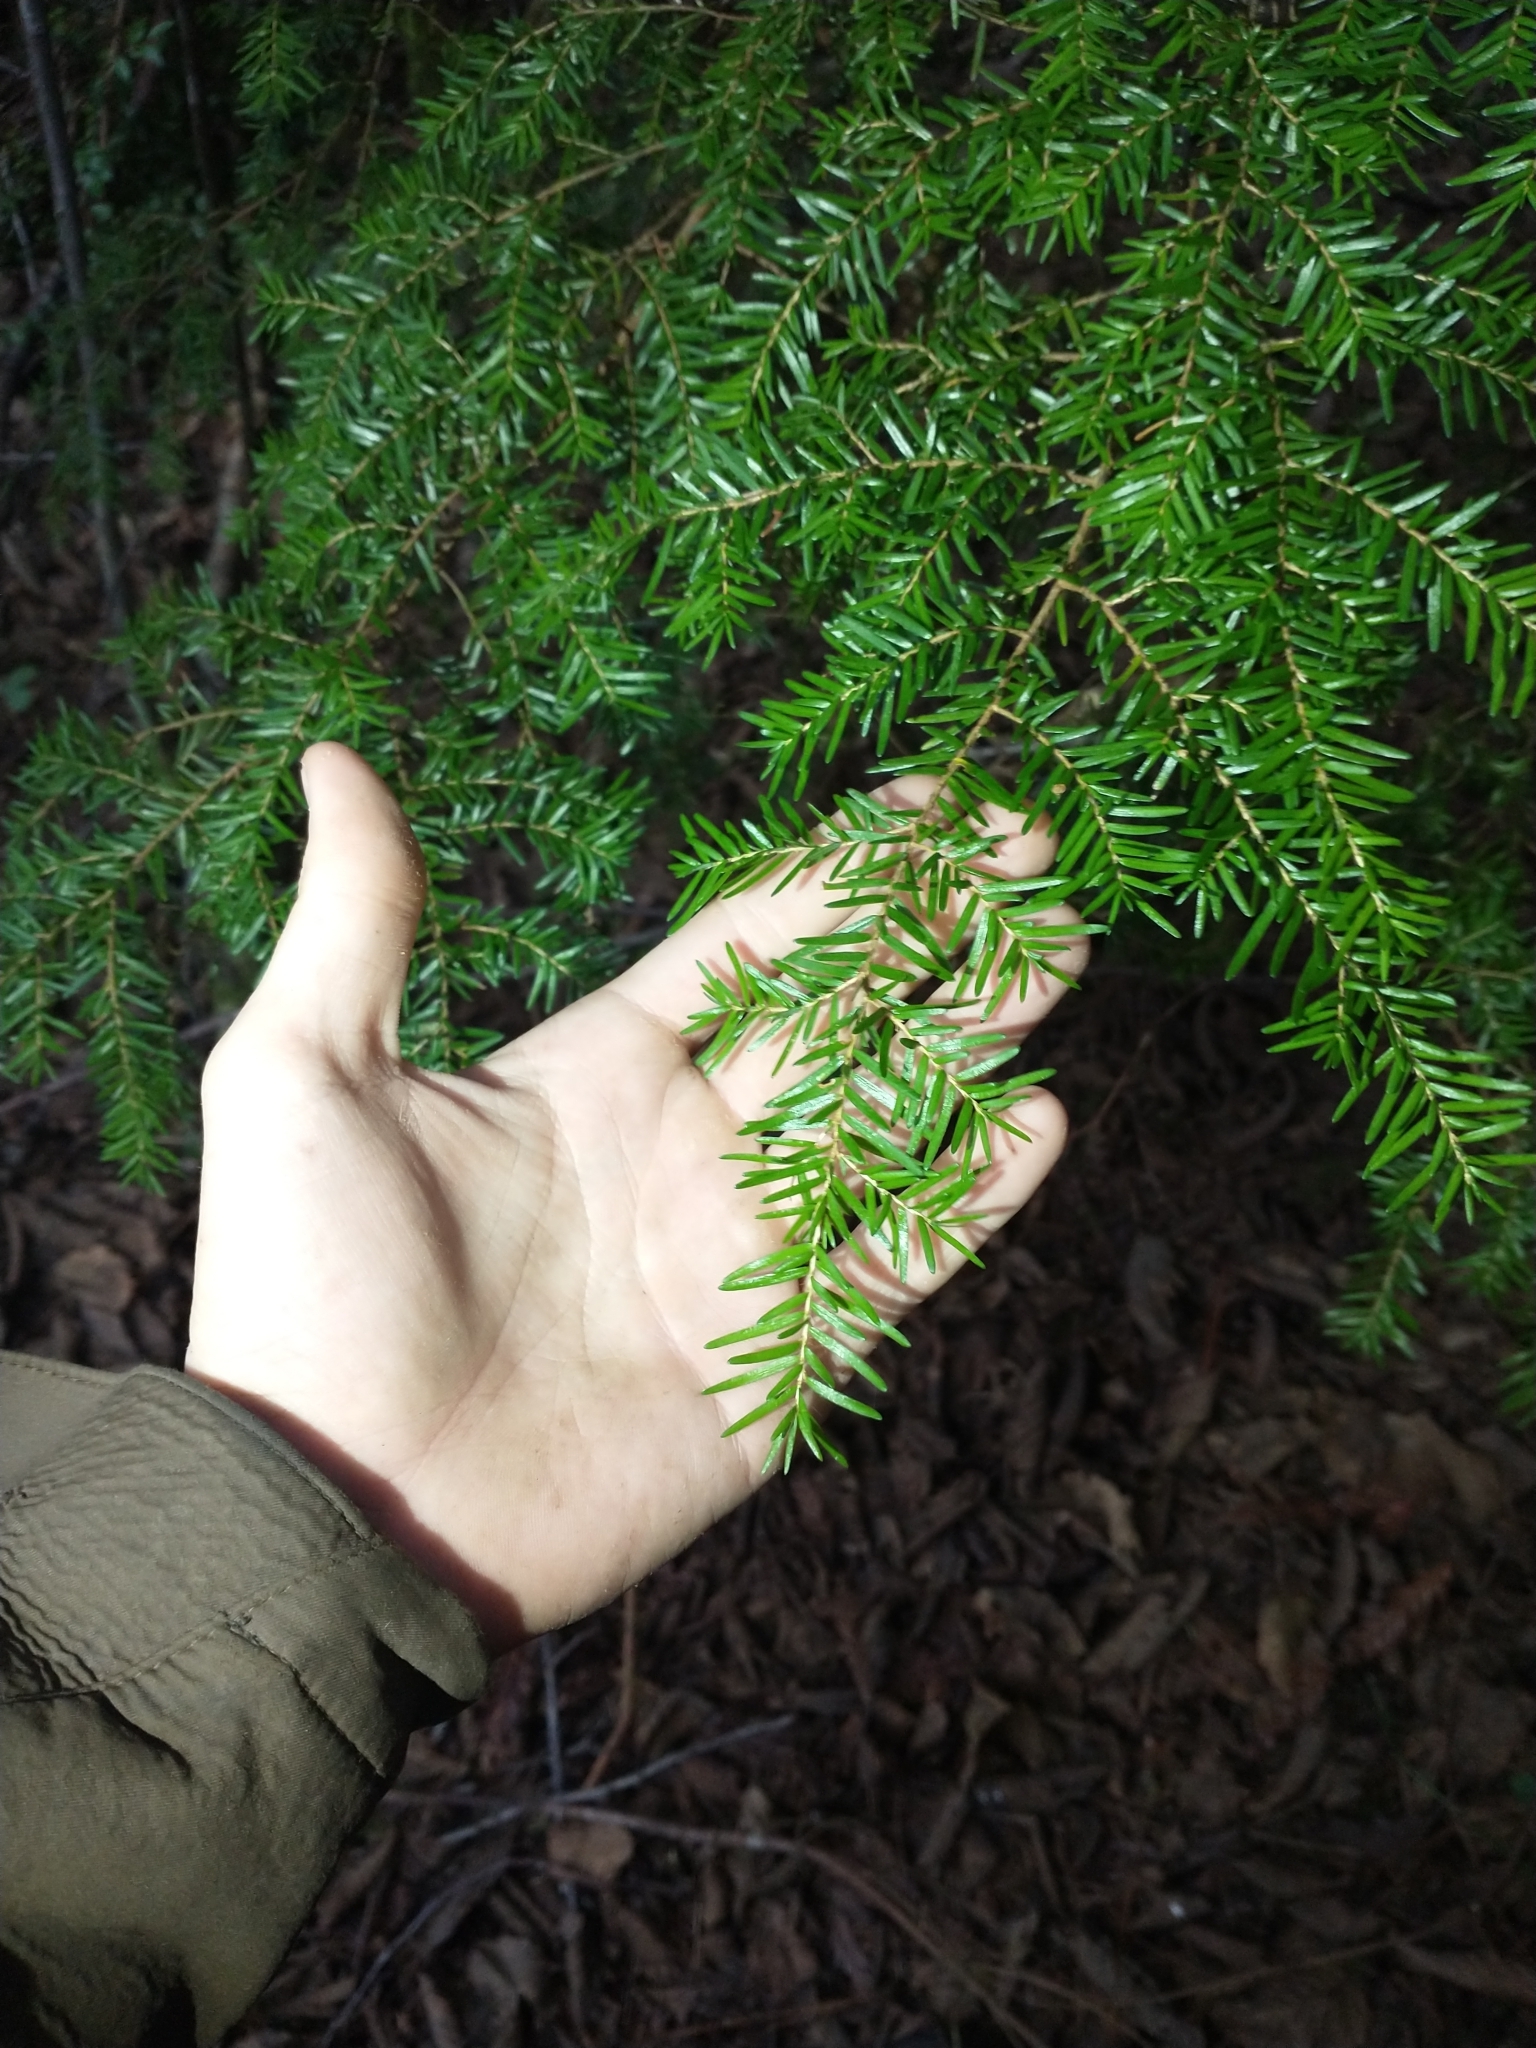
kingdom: Plantae
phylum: Tracheophyta
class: Pinopsida
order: Pinales
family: Pinaceae
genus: Tsuga
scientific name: Tsuga heterophylla
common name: Western hemlock
